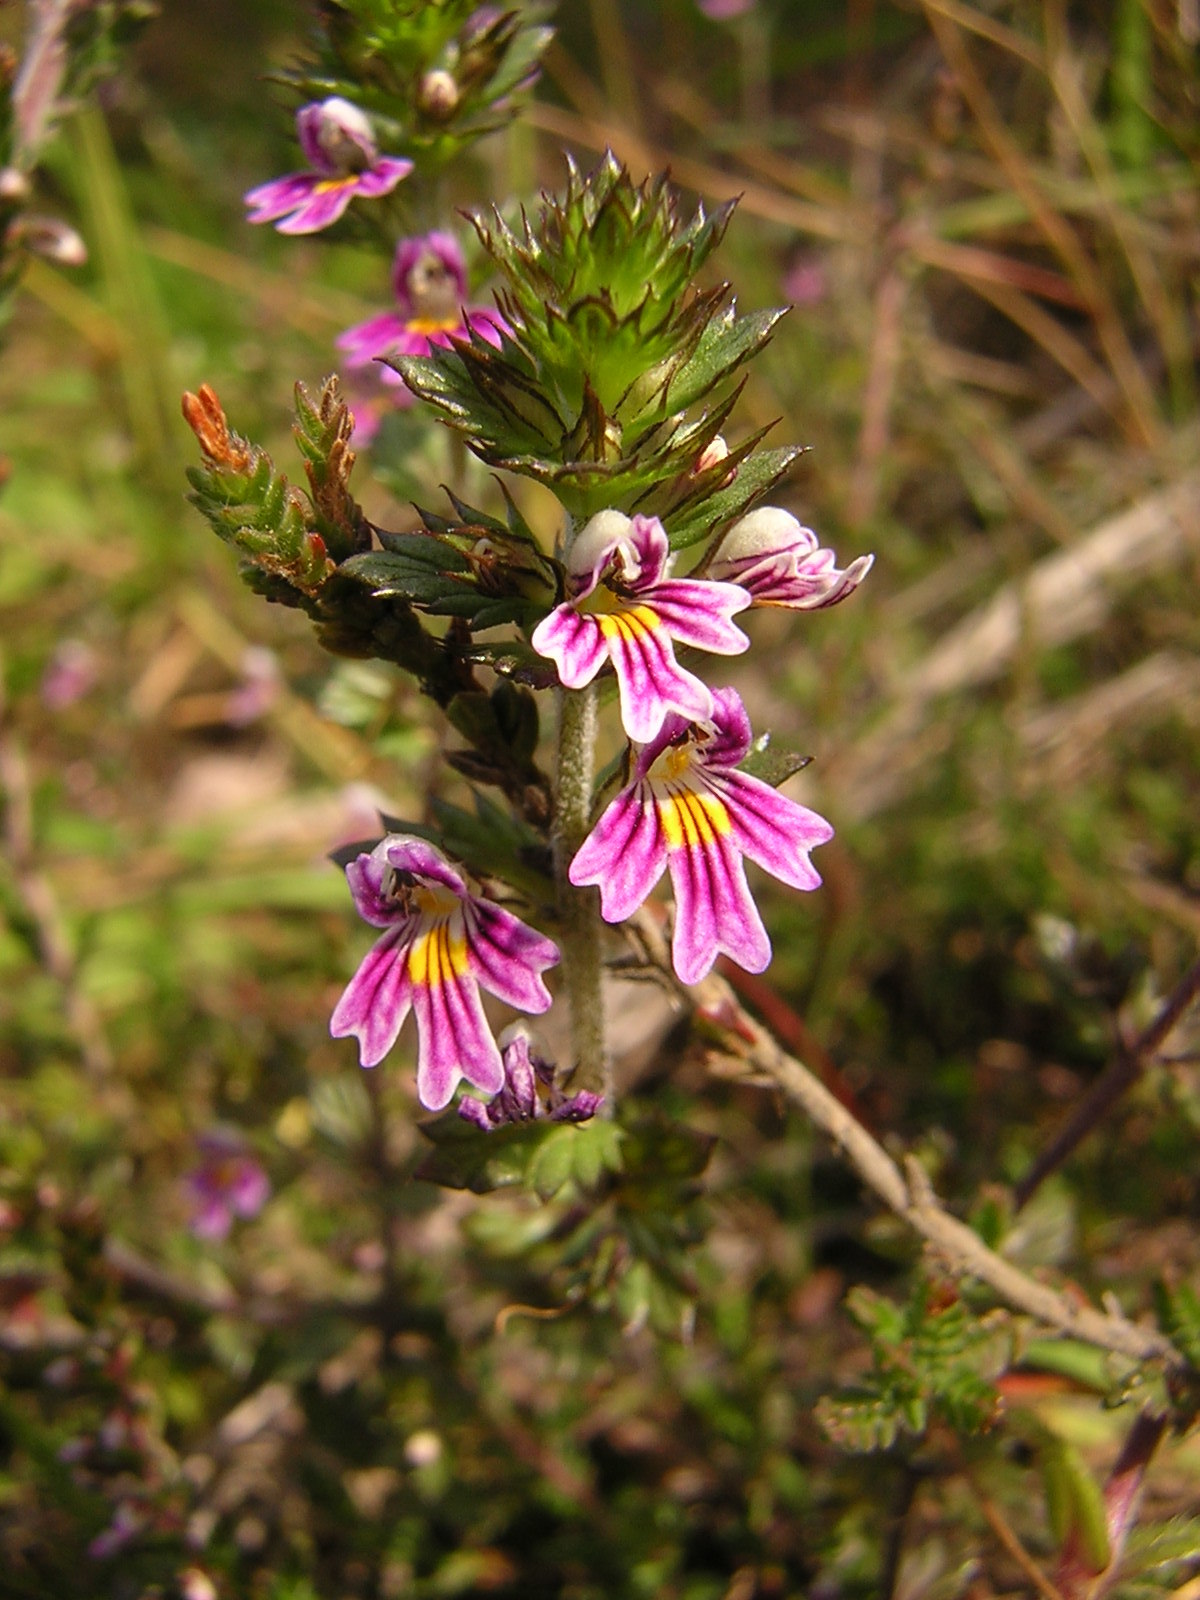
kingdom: Plantae
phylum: Tracheophyta
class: Magnoliopsida
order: Lamiales
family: Orobanchaceae
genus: Euphrasia
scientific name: Euphrasia micrantha
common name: Northern eyebright
